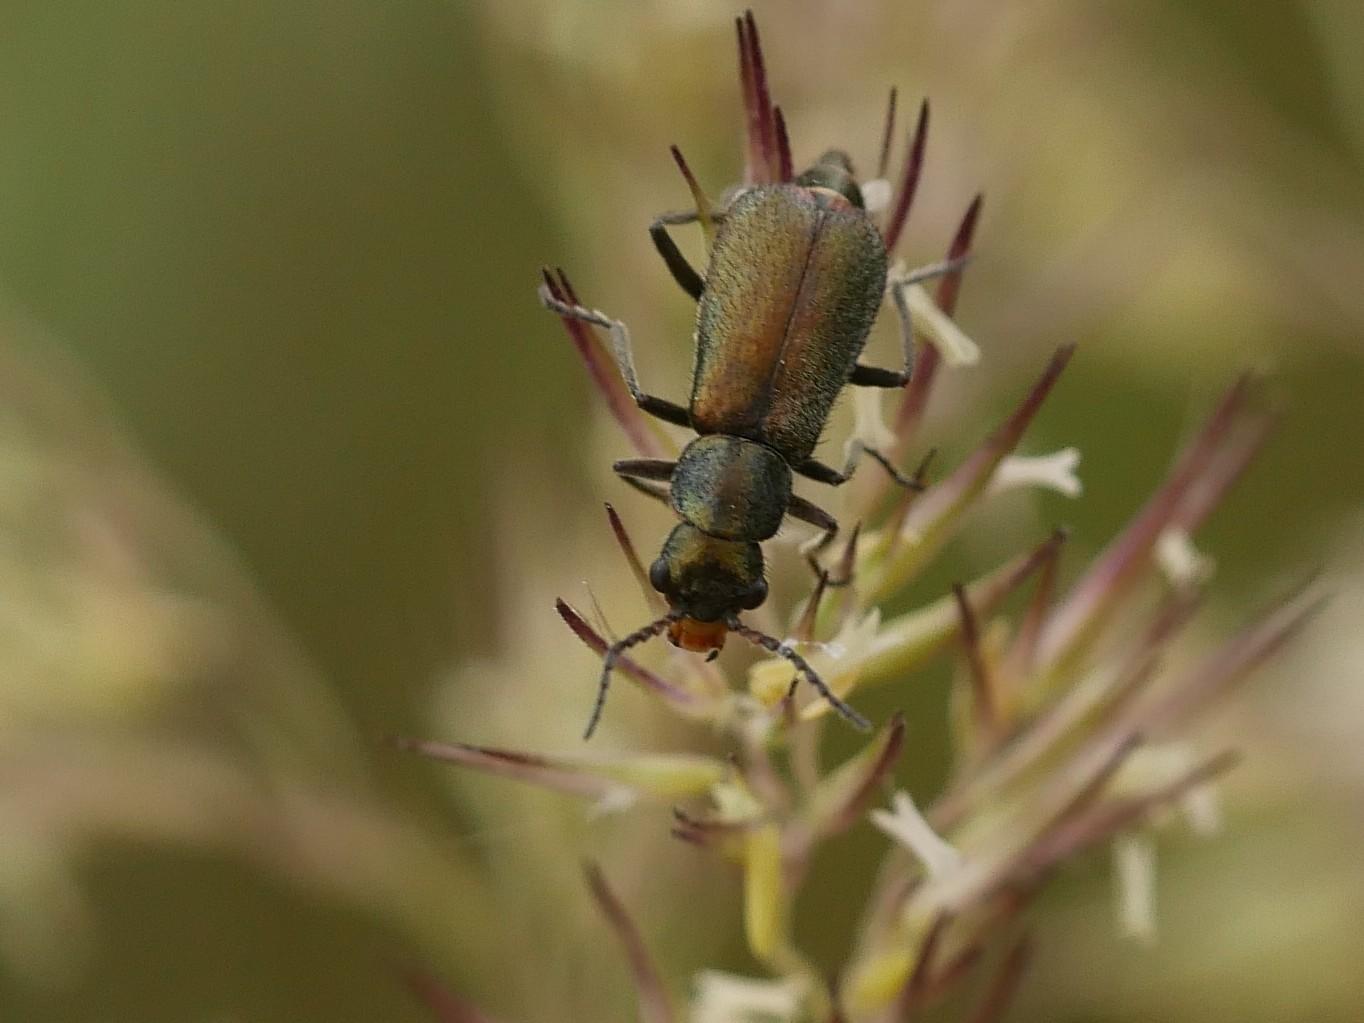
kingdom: Animalia
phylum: Arthropoda
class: Insecta
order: Coleoptera
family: Malachiidae
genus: Cordylepherus
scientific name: Cordylepherus viridis
